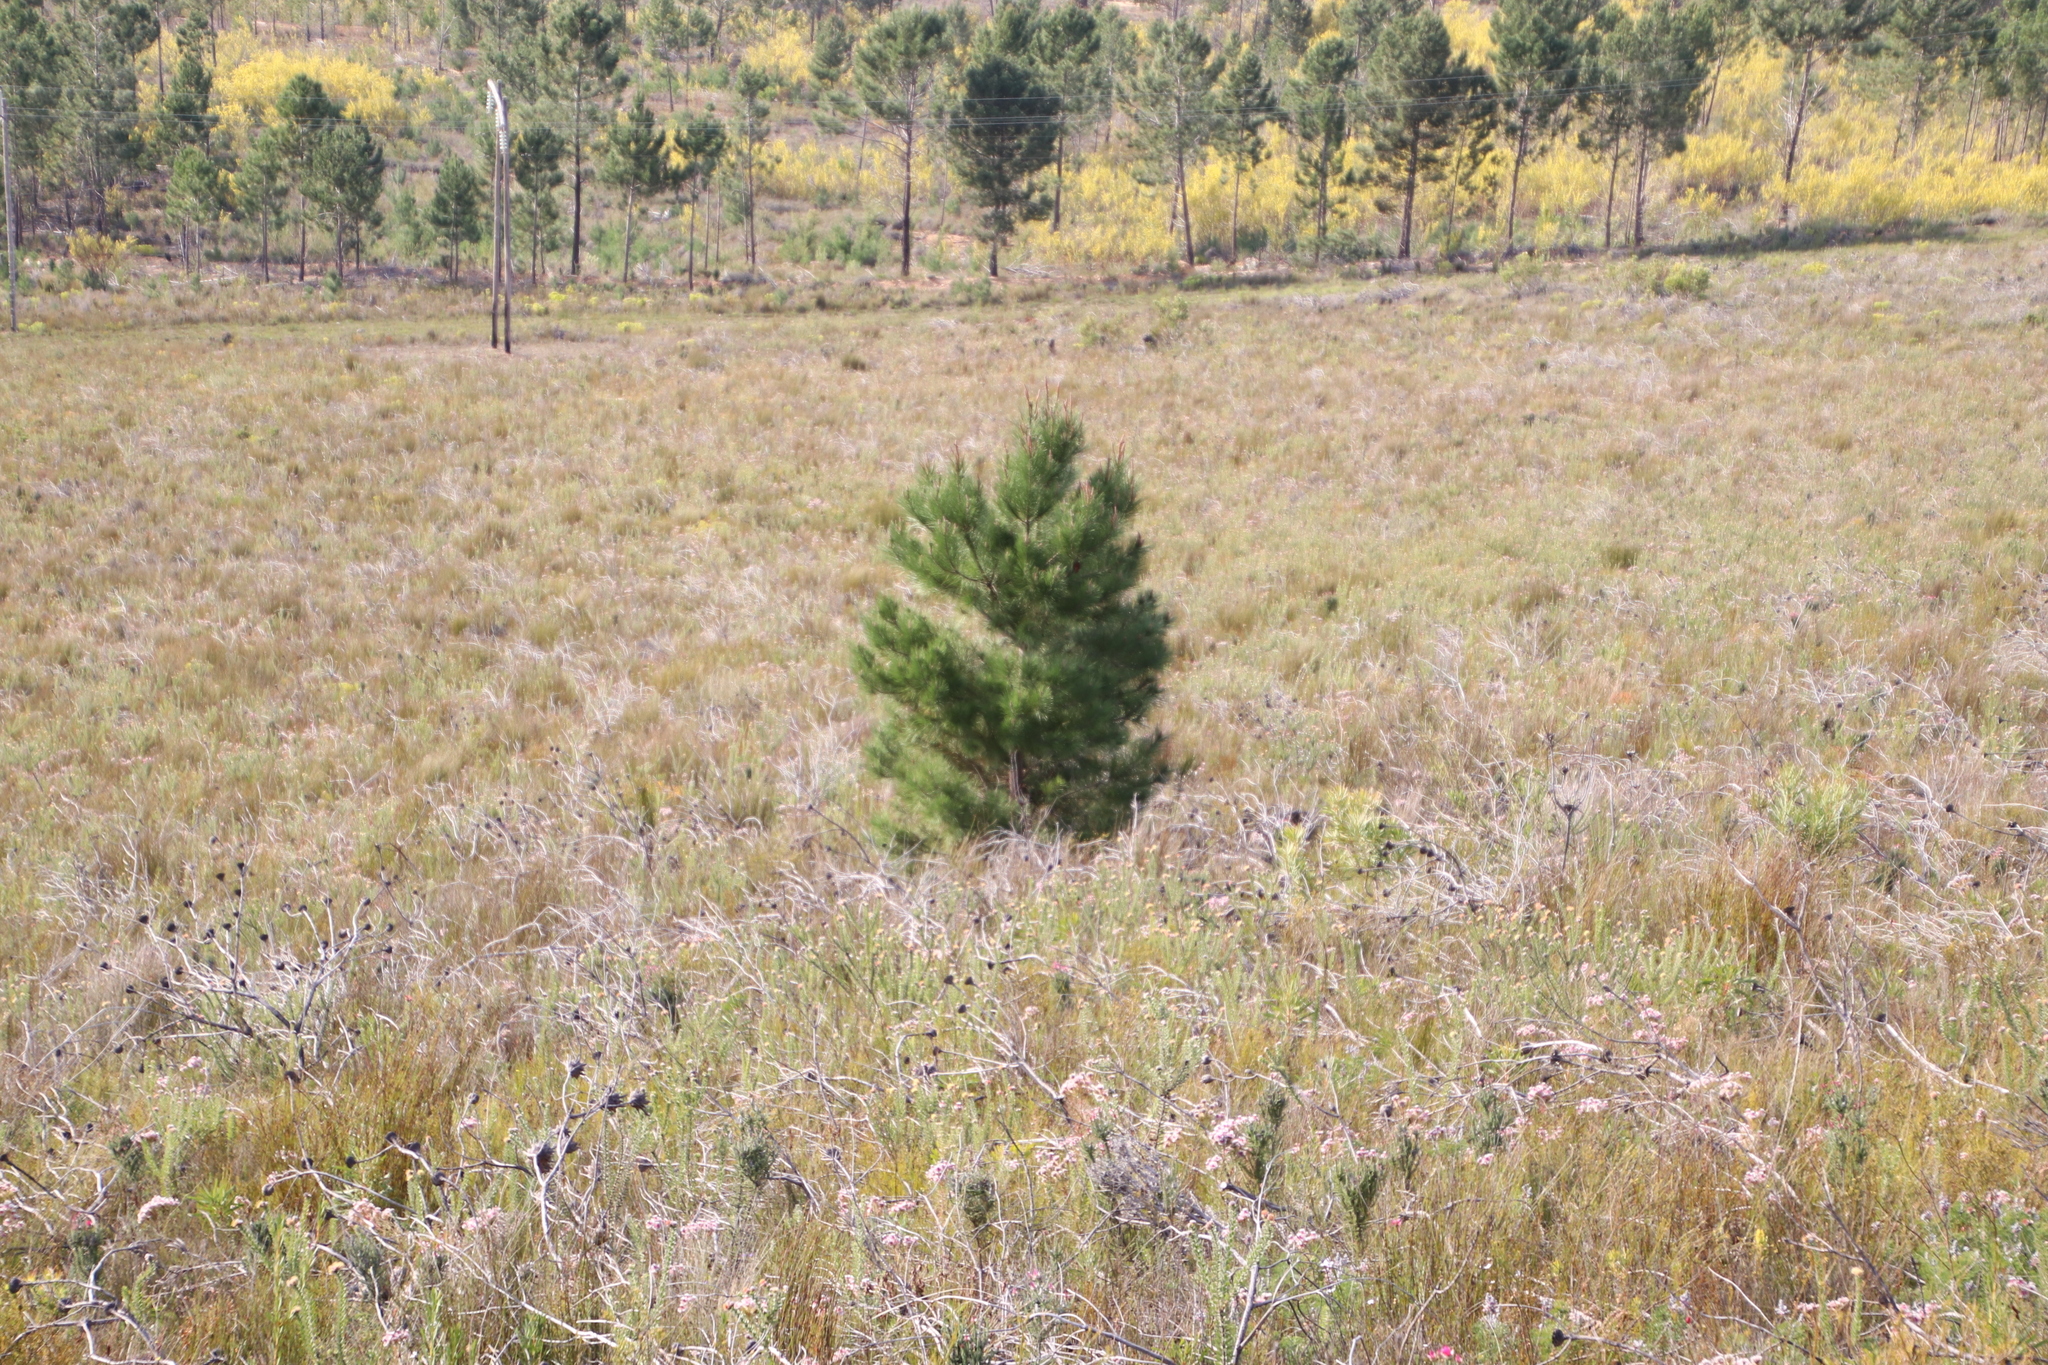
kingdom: Plantae
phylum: Tracheophyta
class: Pinopsida
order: Pinales
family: Pinaceae
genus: Pinus
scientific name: Pinus pinaster
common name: Maritime pine
